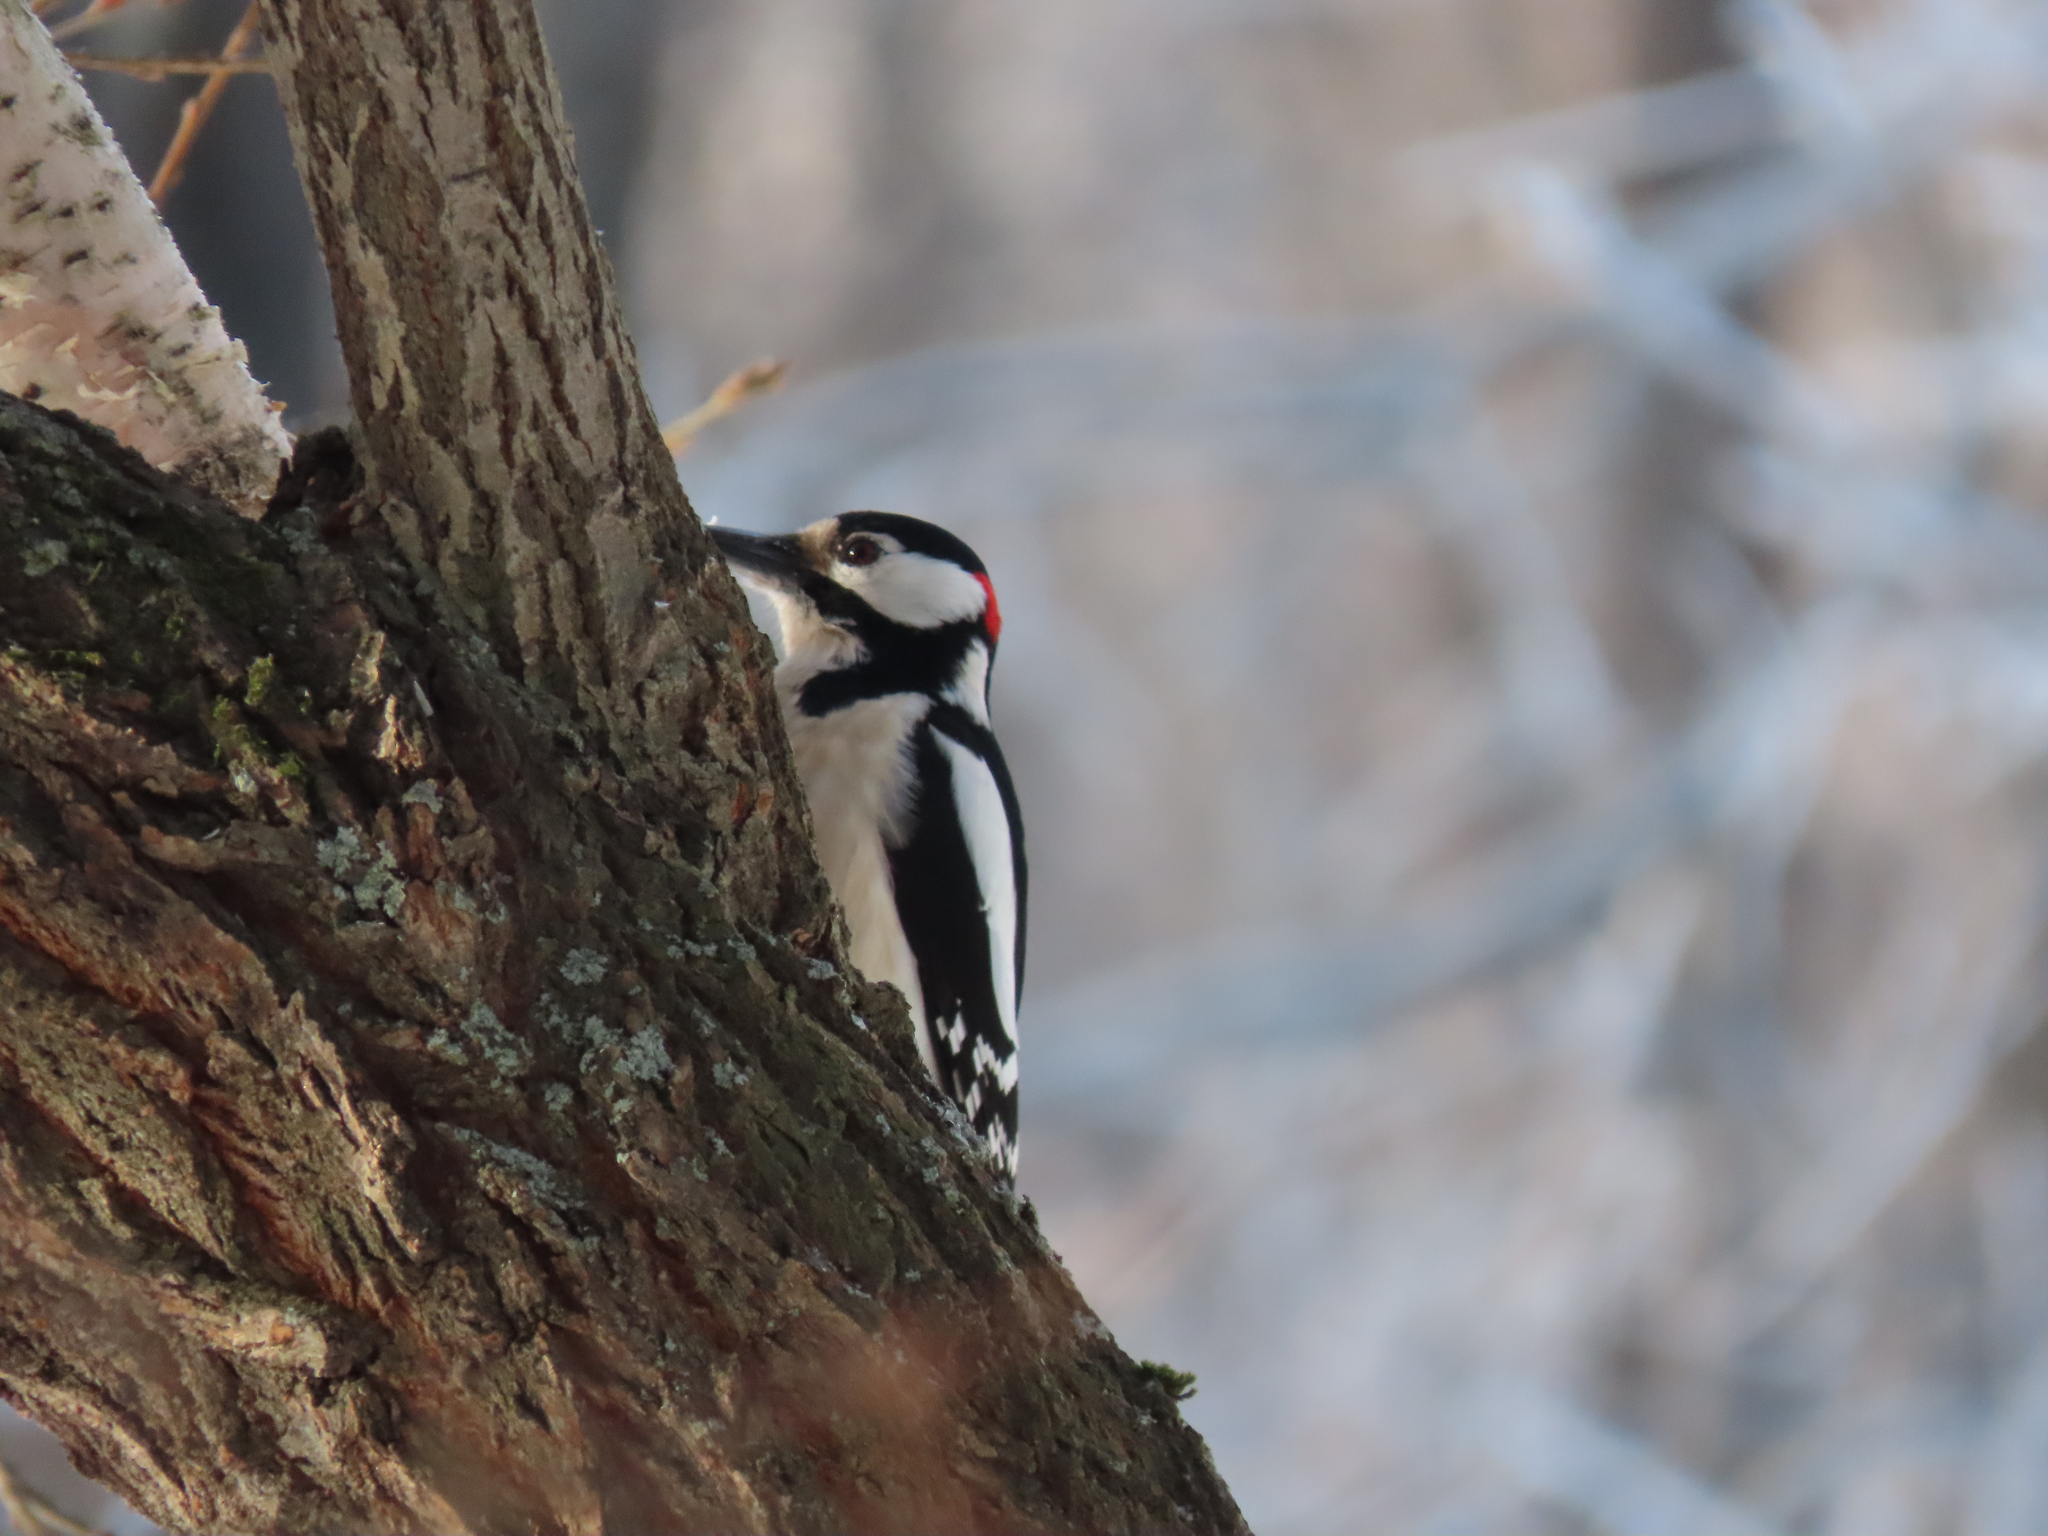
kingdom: Animalia
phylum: Chordata
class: Aves
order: Piciformes
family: Picidae
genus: Dendrocopos
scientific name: Dendrocopos major
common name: Great spotted woodpecker
